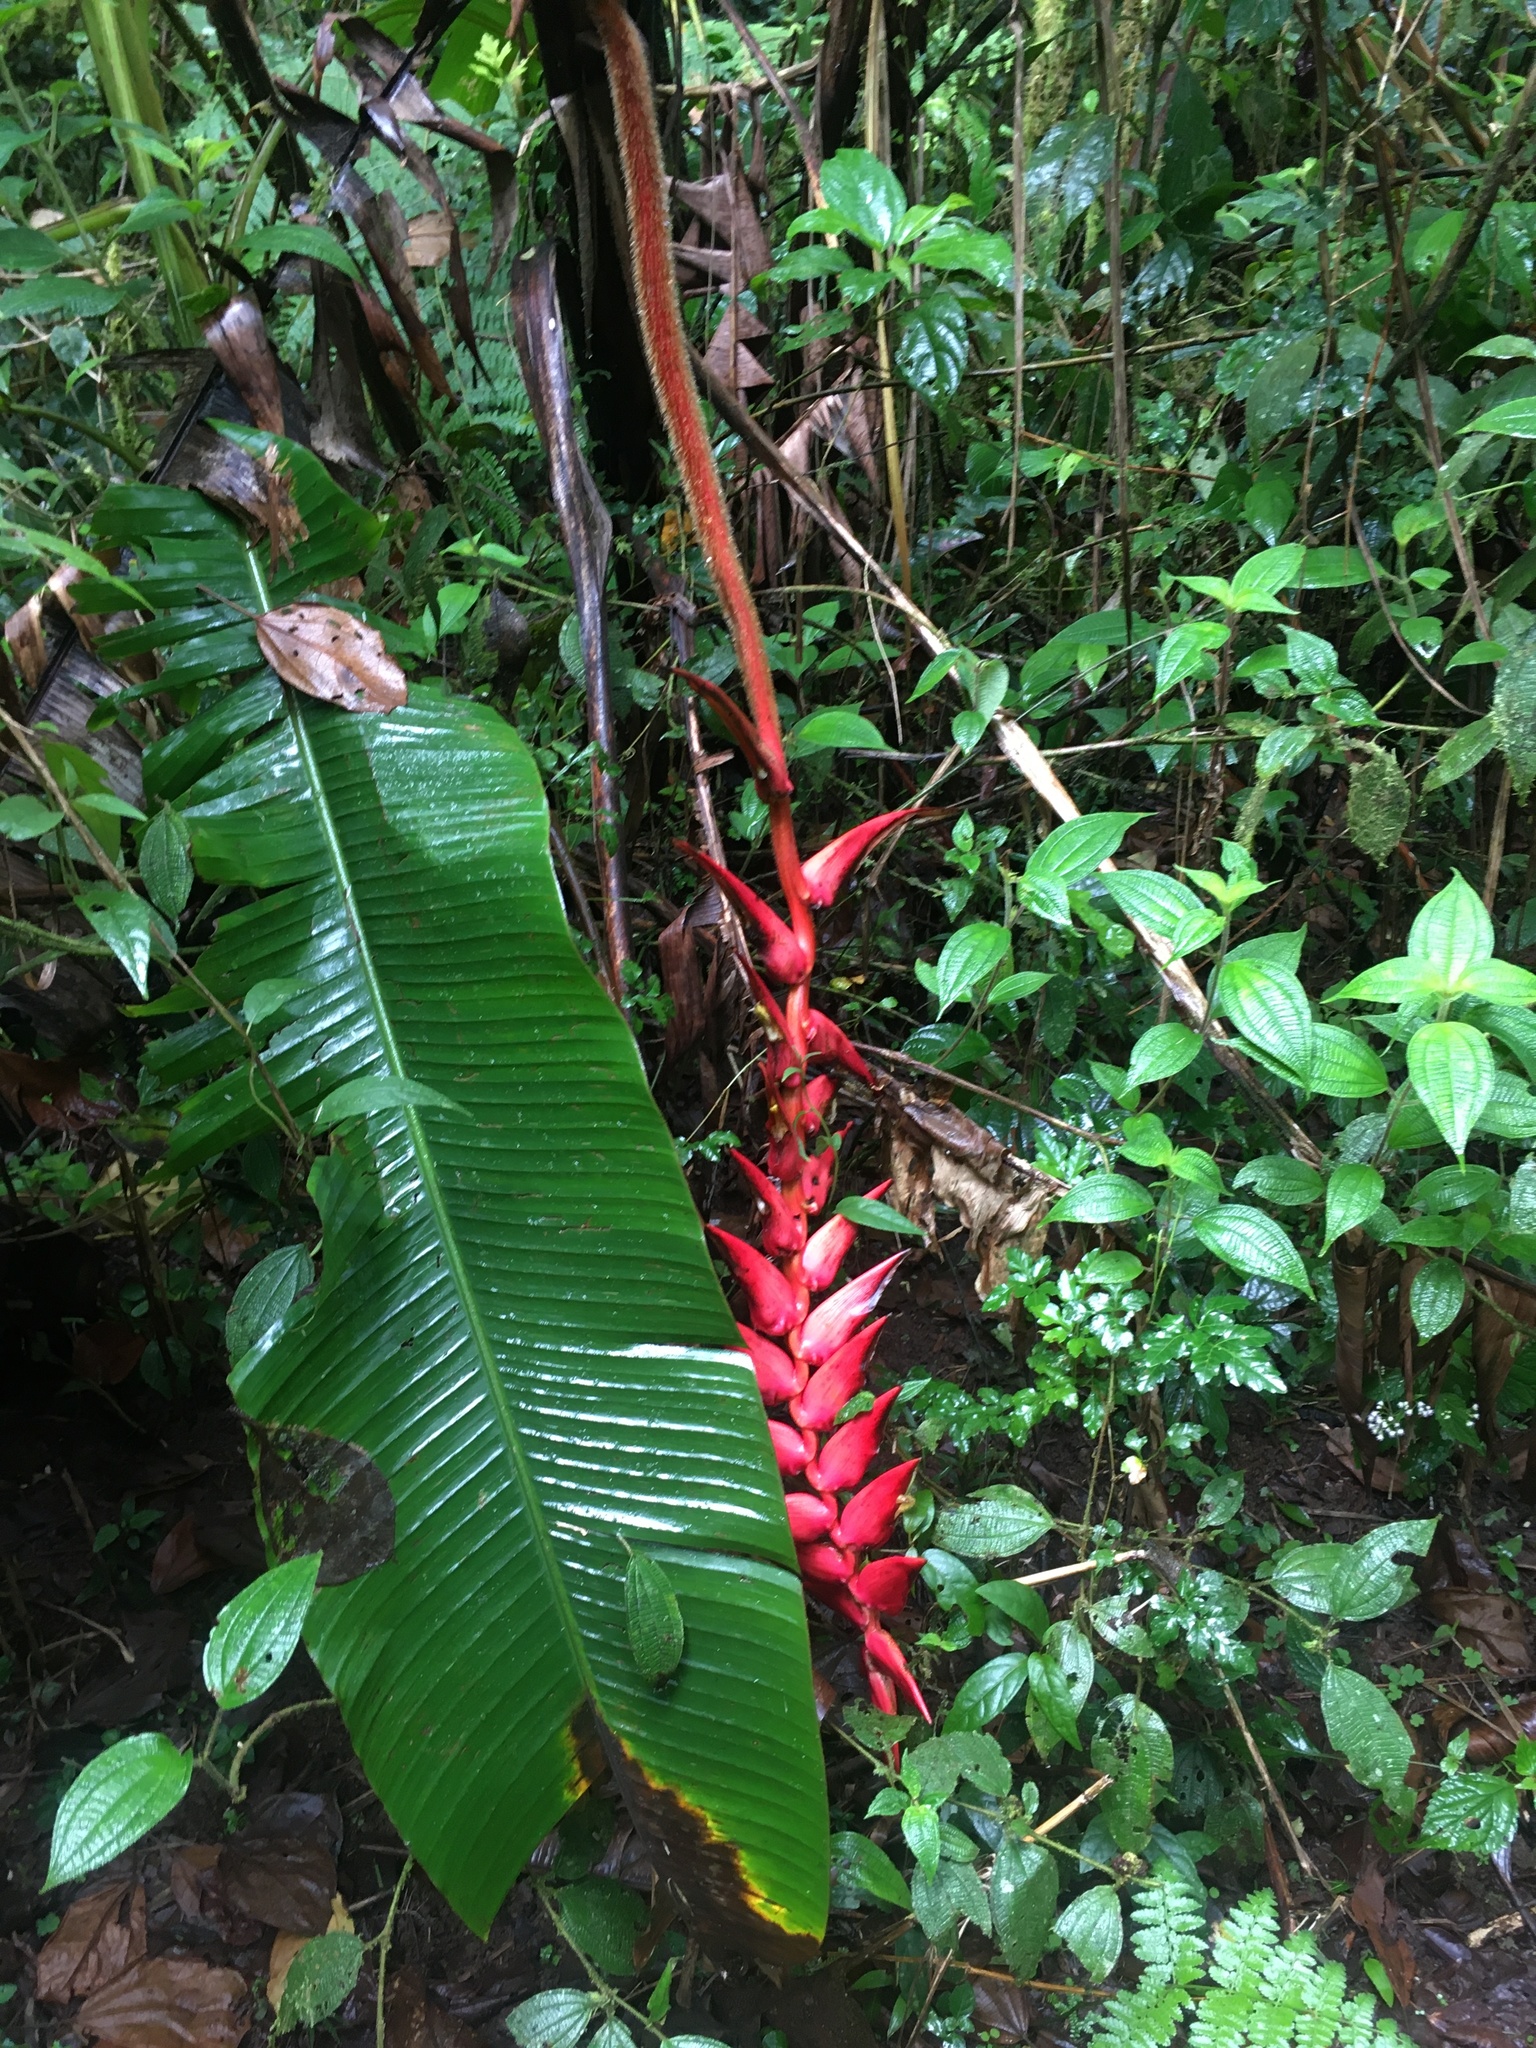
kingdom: Plantae
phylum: Tracheophyta
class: Liliopsida
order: Zingiberales
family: Heliconiaceae
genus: Heliconia
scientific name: Heliconia ramonensis
